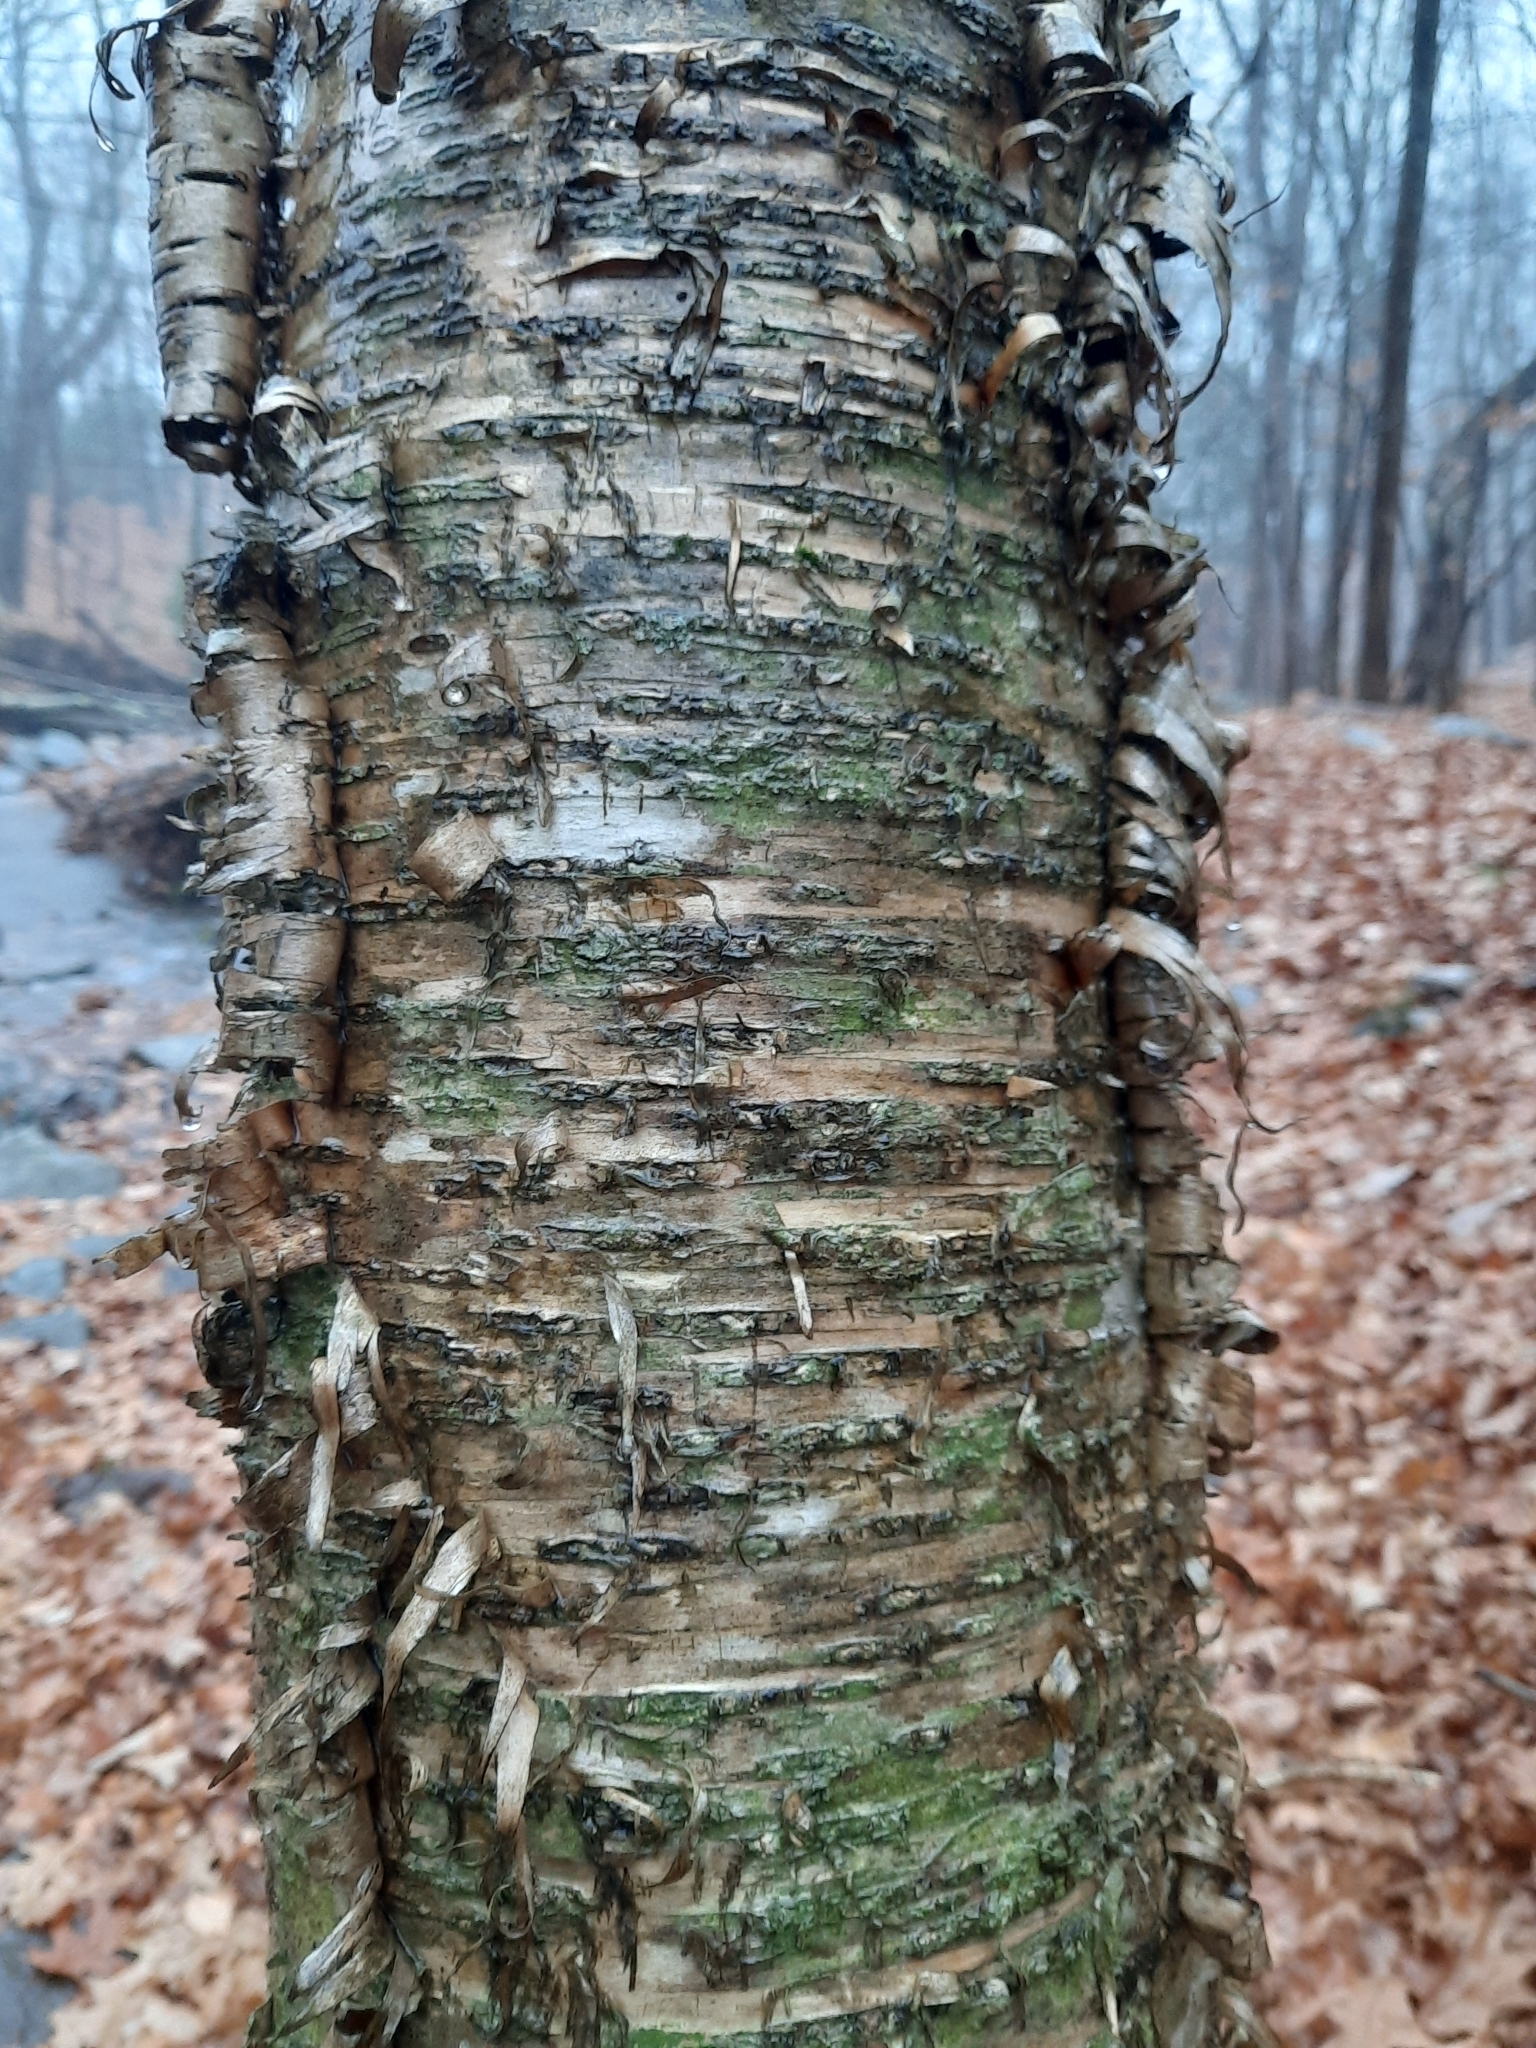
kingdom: Plantae
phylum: Tracheophyta
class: Magnoliopsida
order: Fagales
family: Betulaceae
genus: Betula
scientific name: Betula alleghaniensis
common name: Yellow birch
